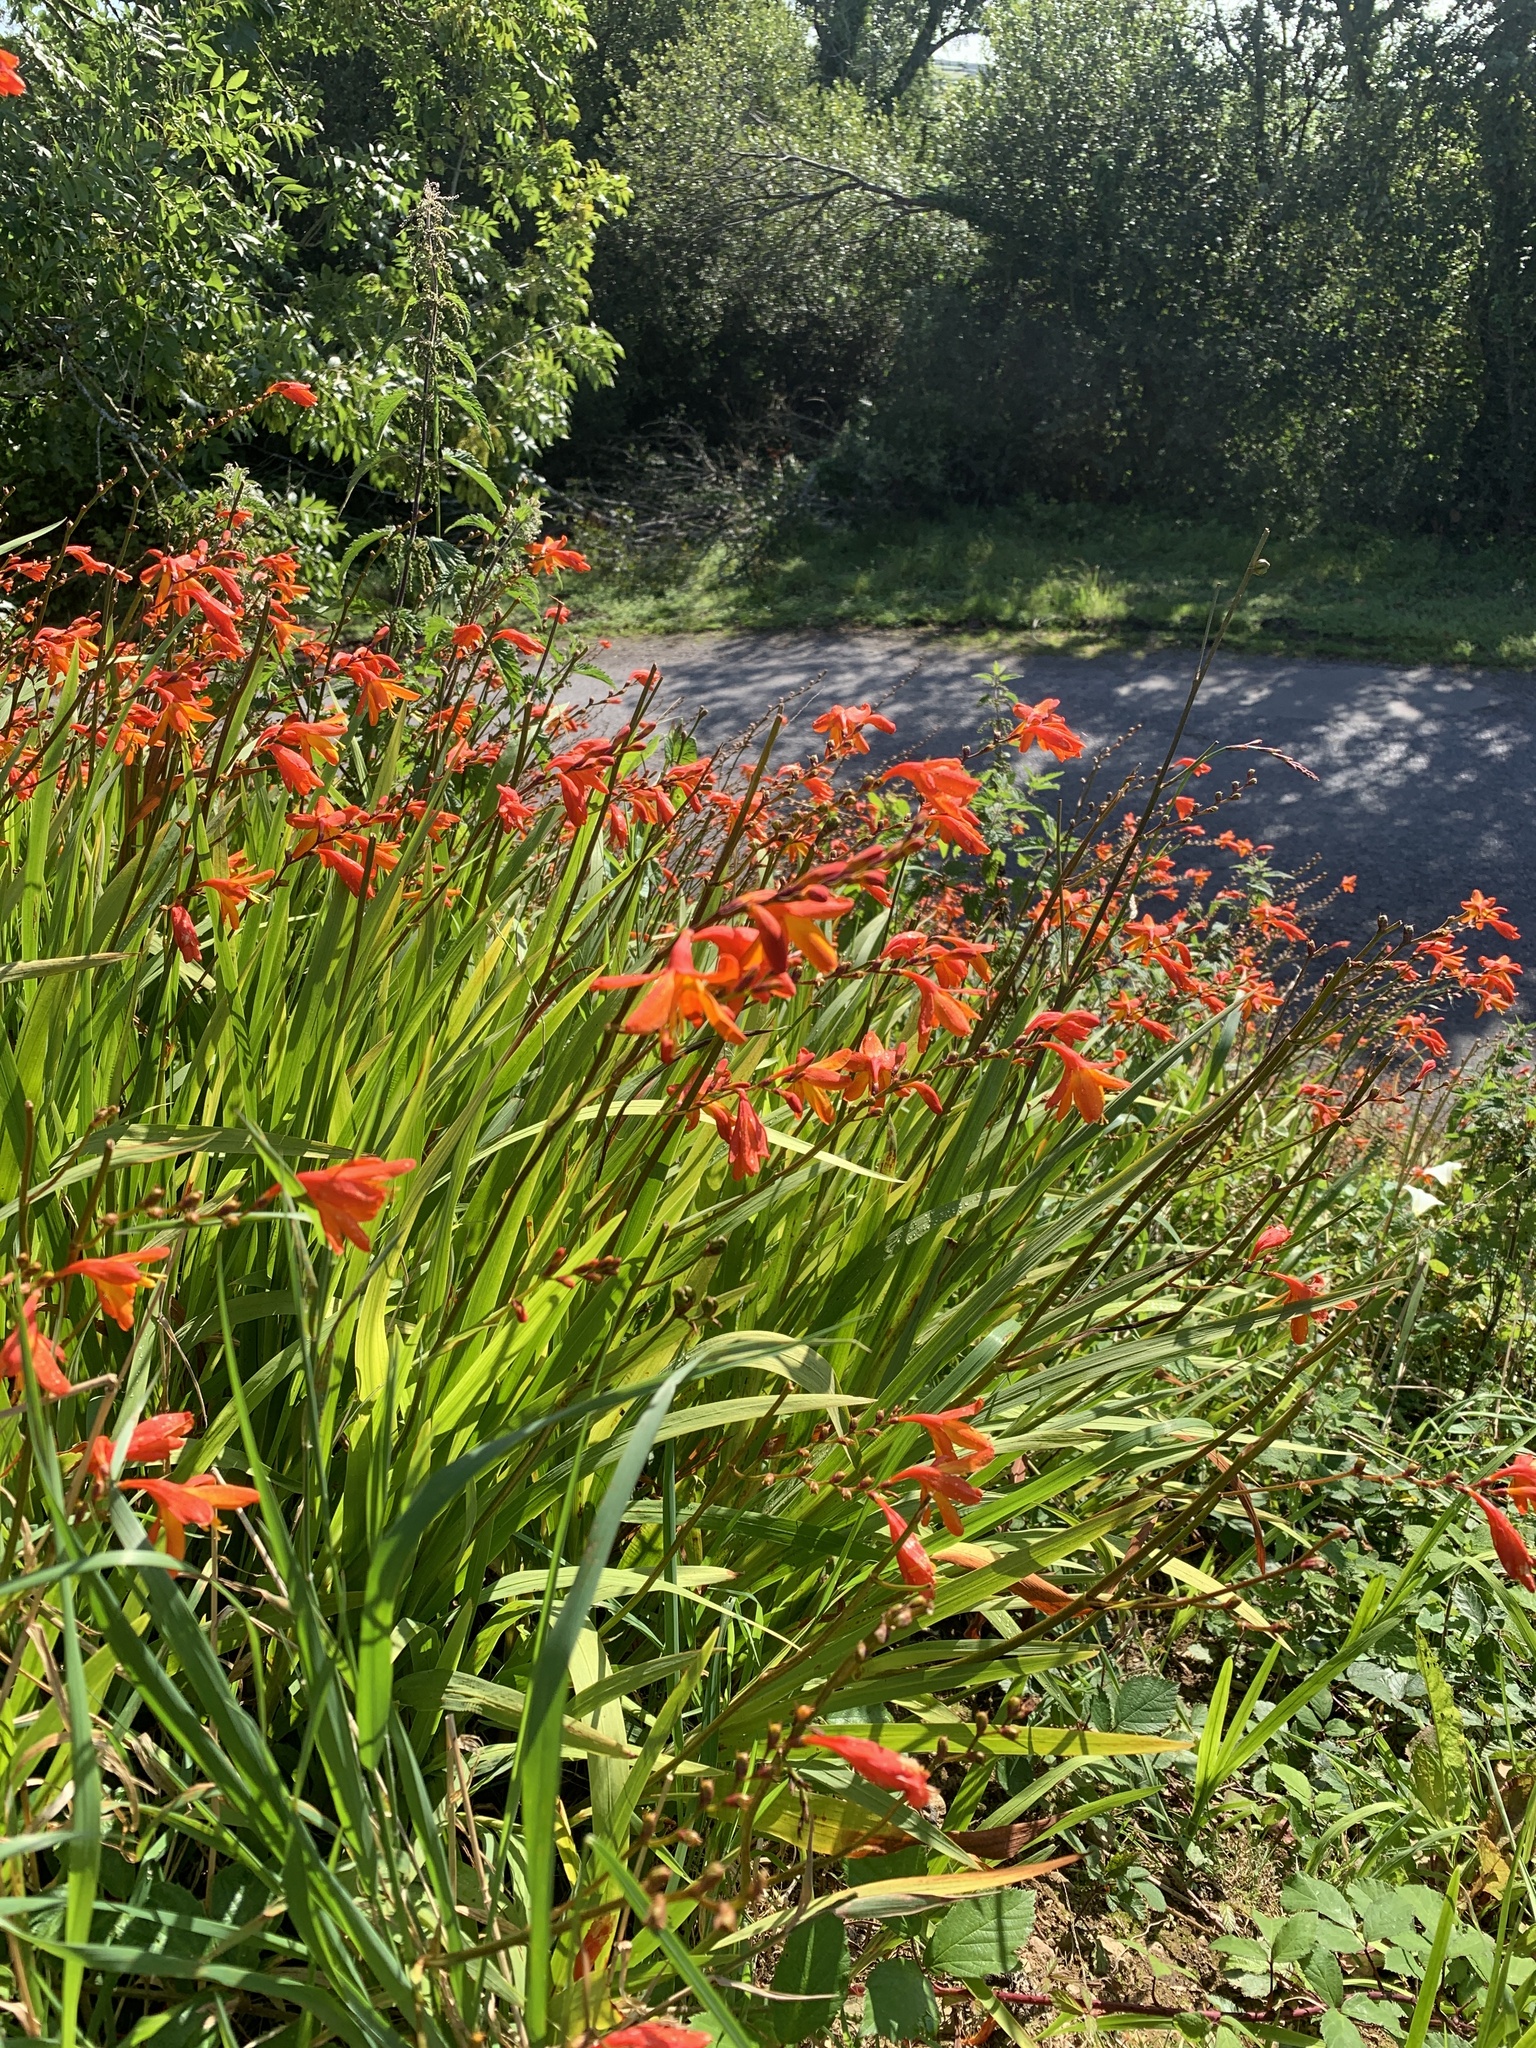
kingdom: Plantae
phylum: Tracheophyta
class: Liliopsida
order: Asparagales
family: Iridaceae
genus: Crocosmia
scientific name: Crocosmia crocosmiiflora
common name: Montbretia
